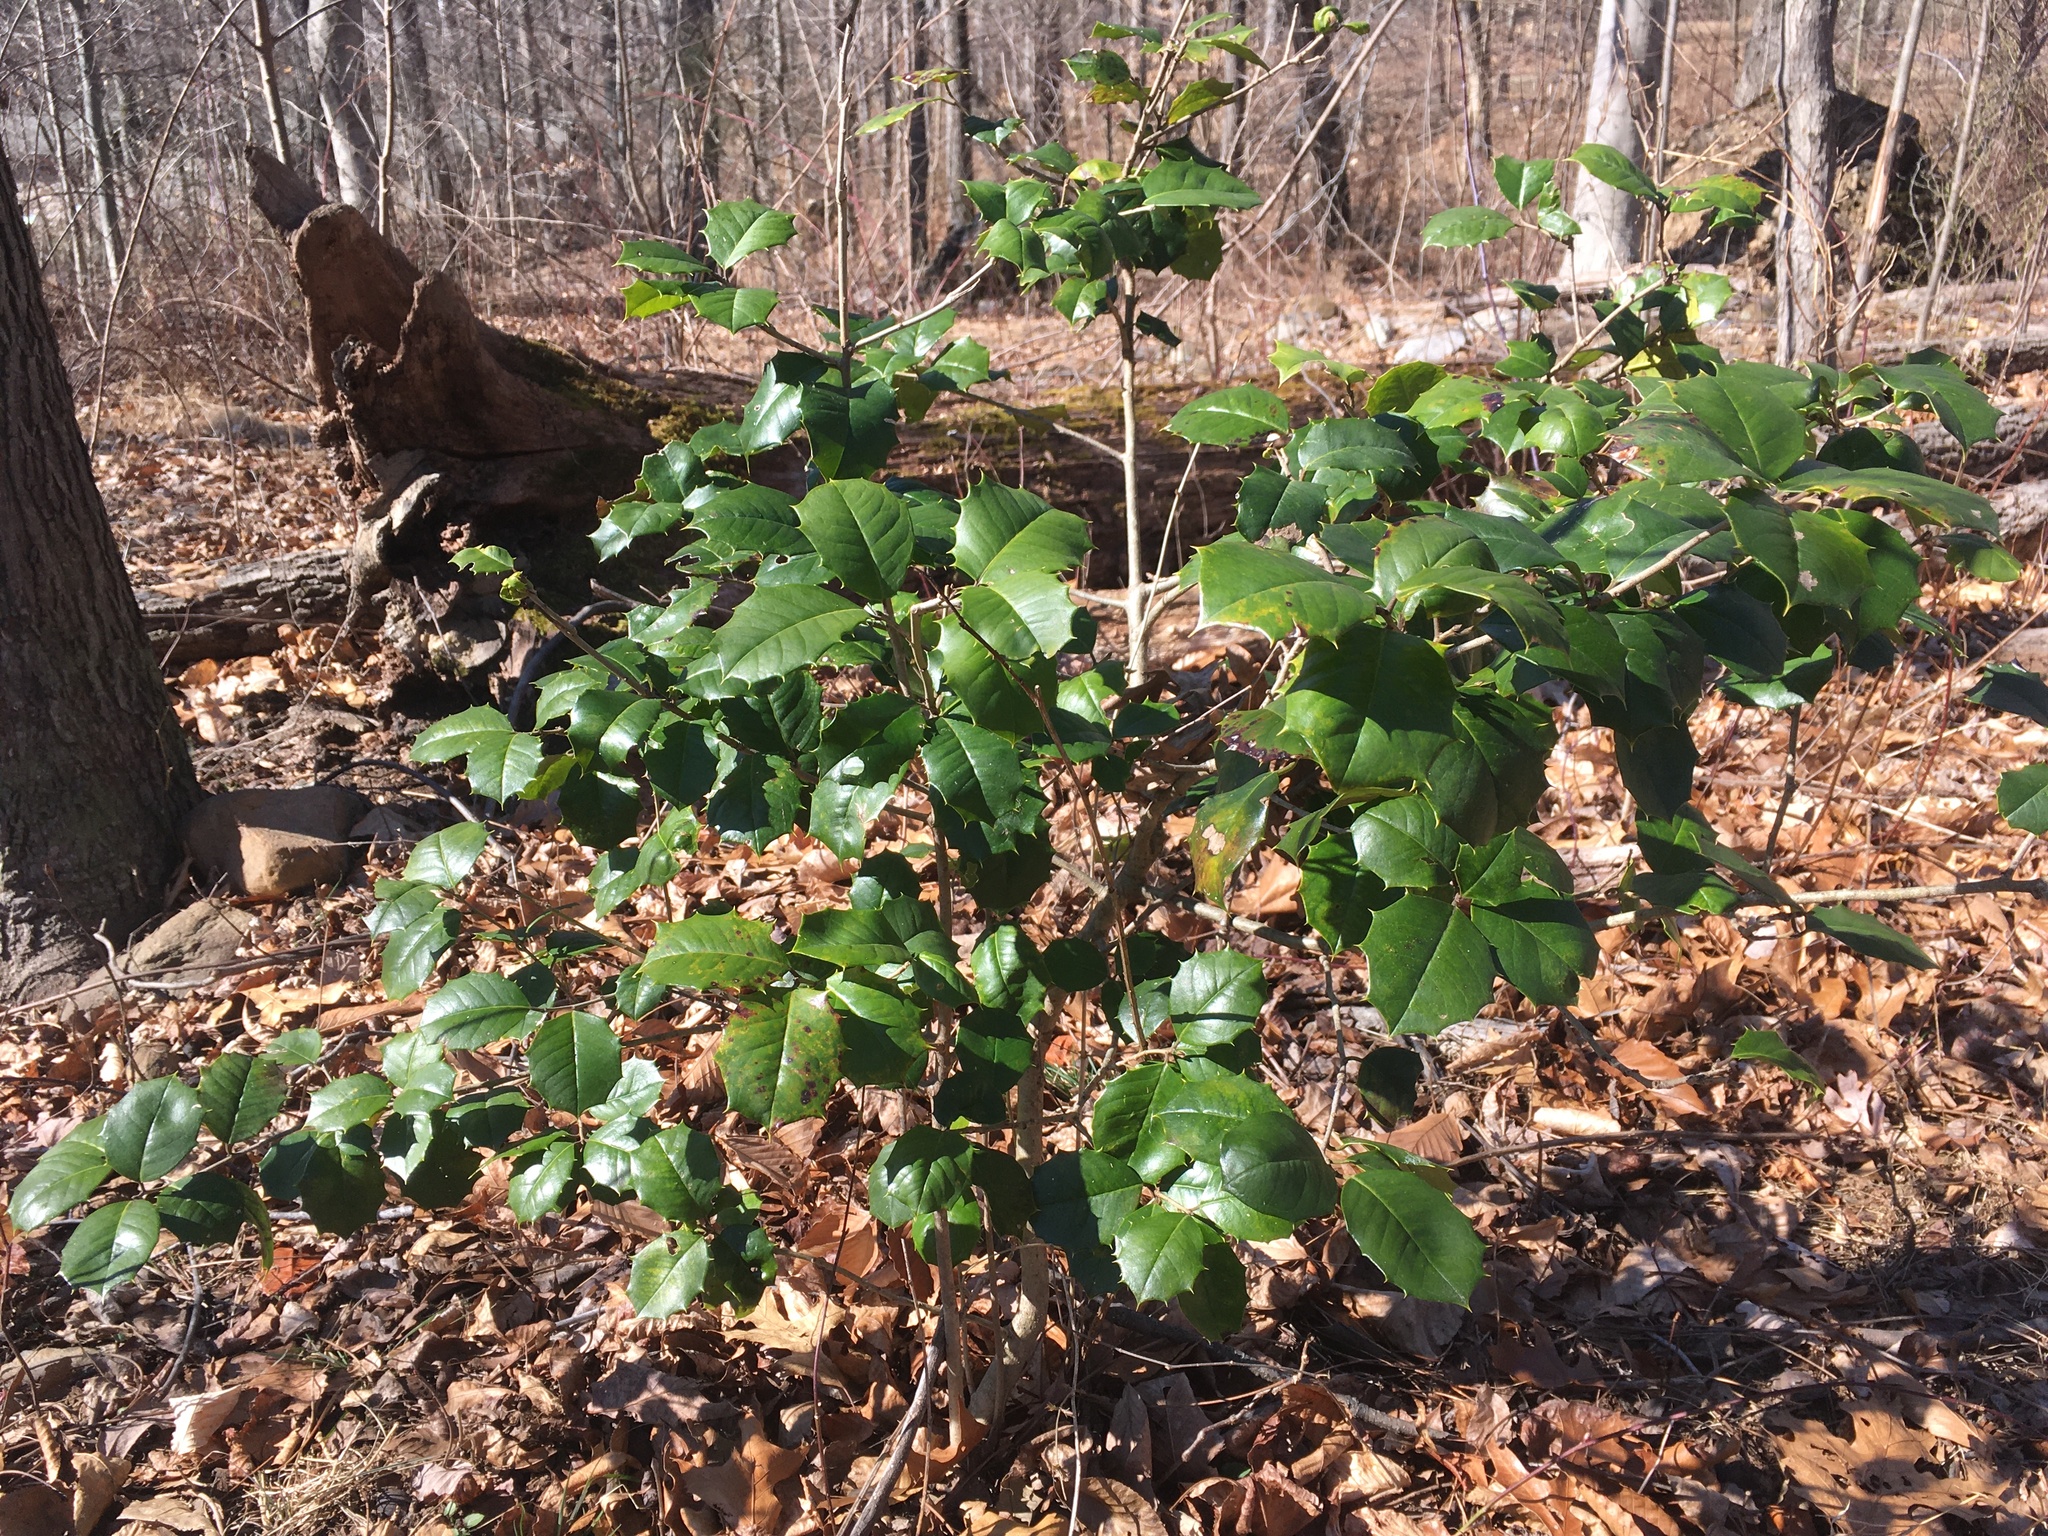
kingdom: Plantae
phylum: Tracheophyta
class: Magnoliopsida
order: Aquifoliales
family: Aquifoliaceae
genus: Ilex
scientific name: Ilex opaca
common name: American holly
